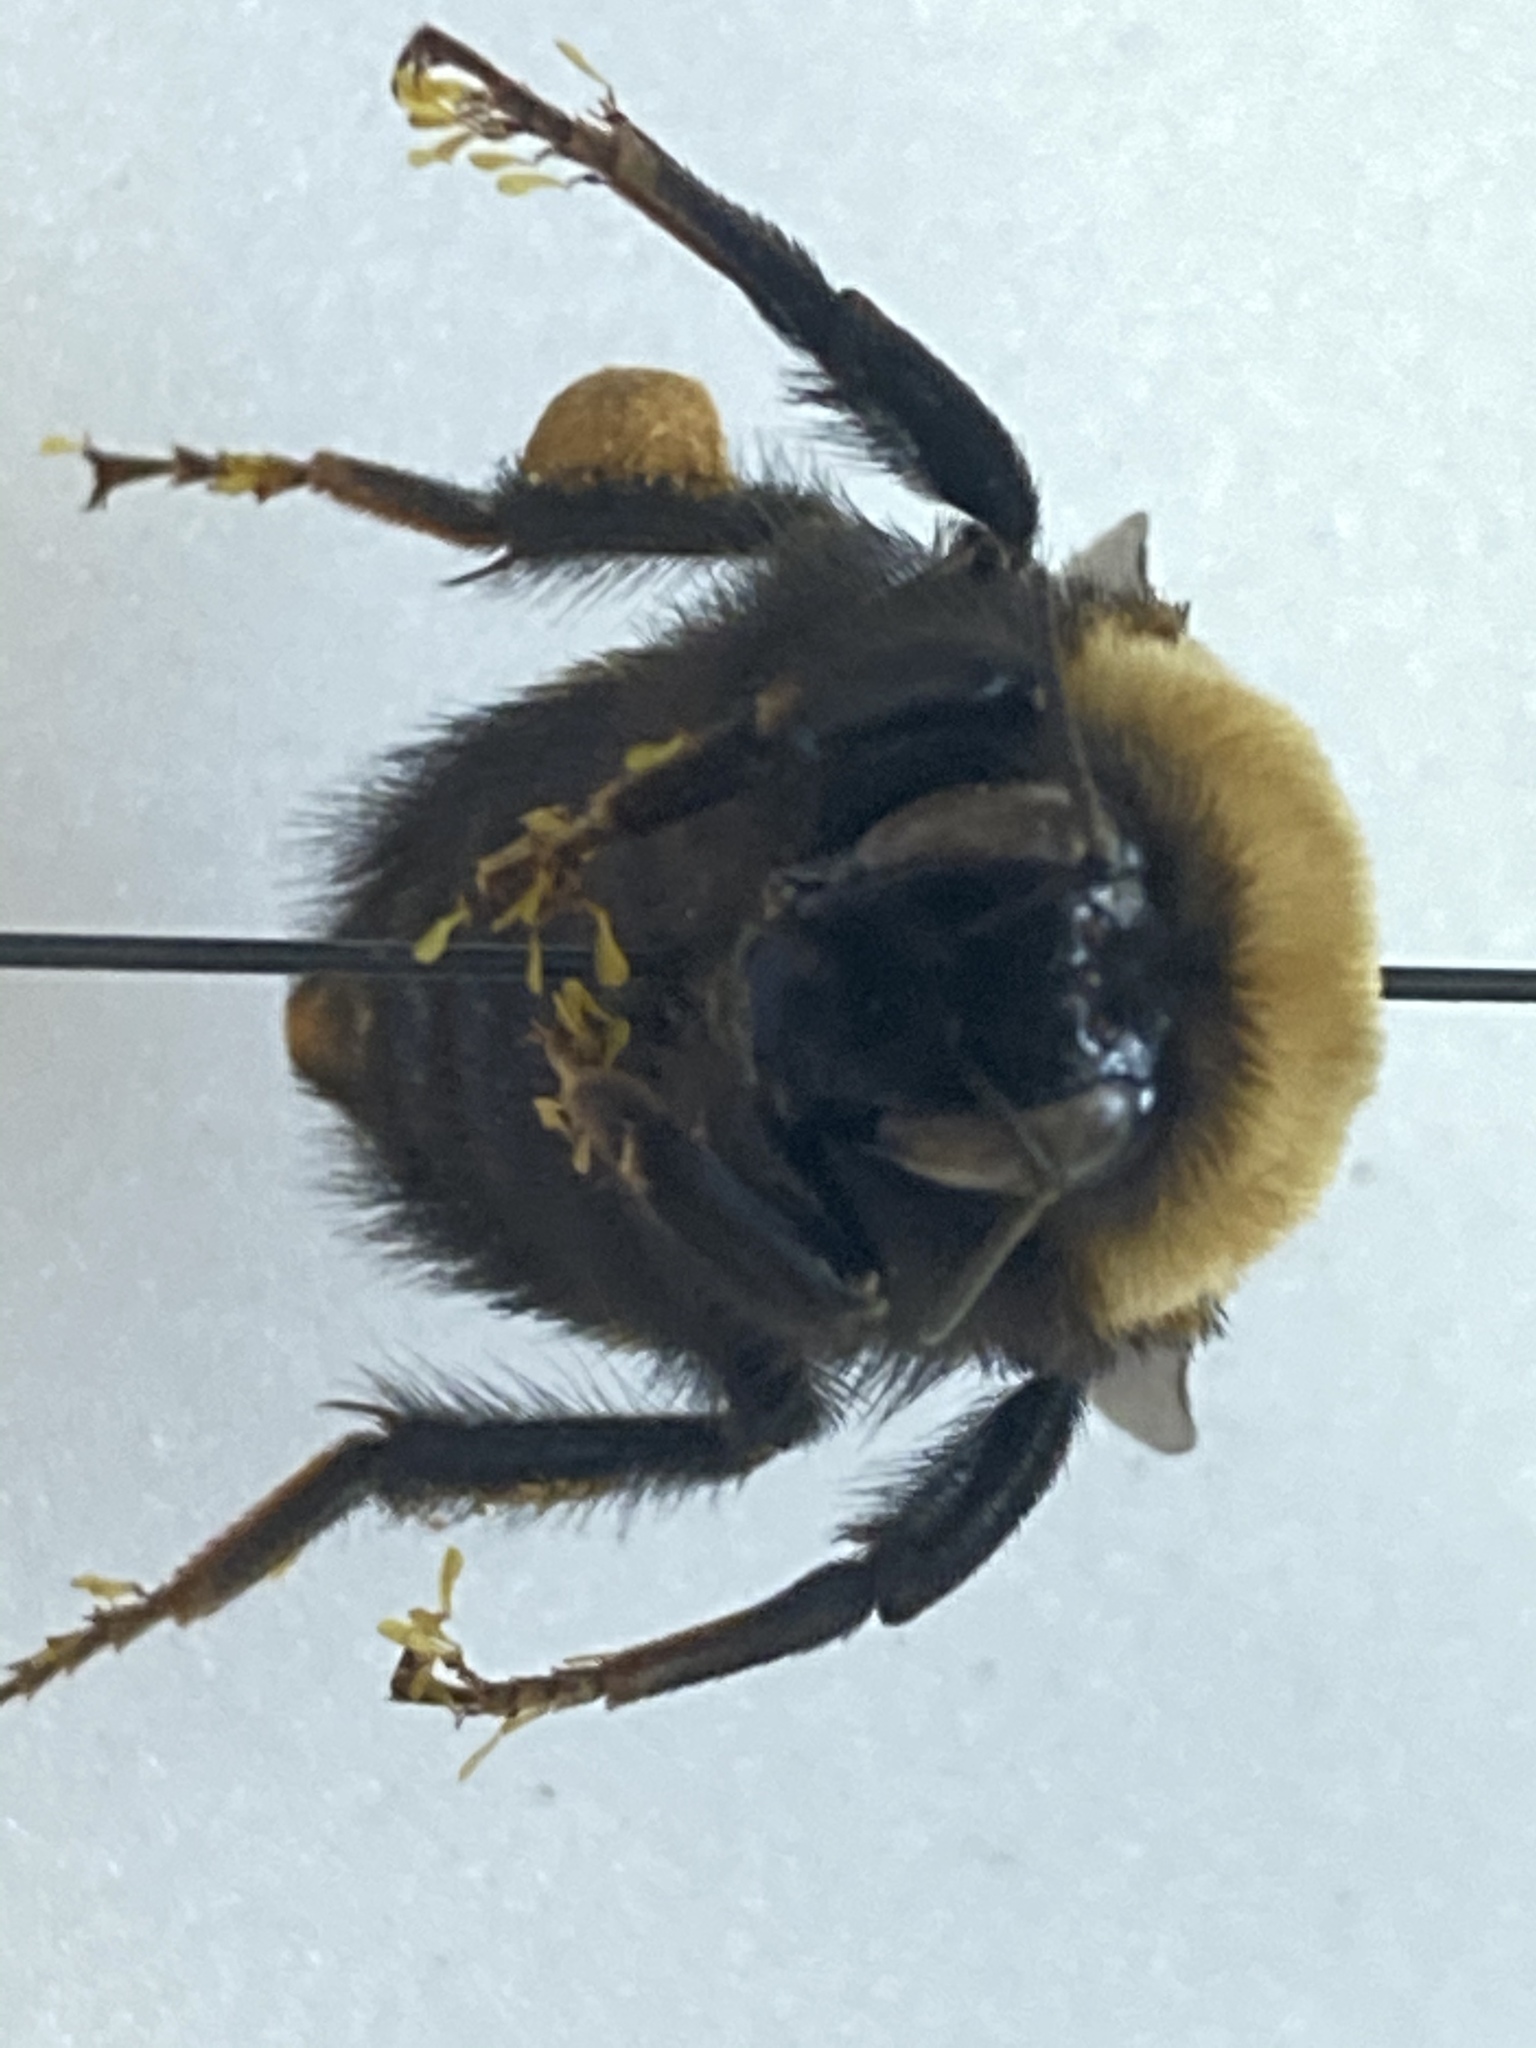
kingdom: Animalia
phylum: Arthropoda
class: Insecta
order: Hymenoptera
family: Apidae
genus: Bombus
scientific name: Bombus nevadensis
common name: Nevada bumble bee
